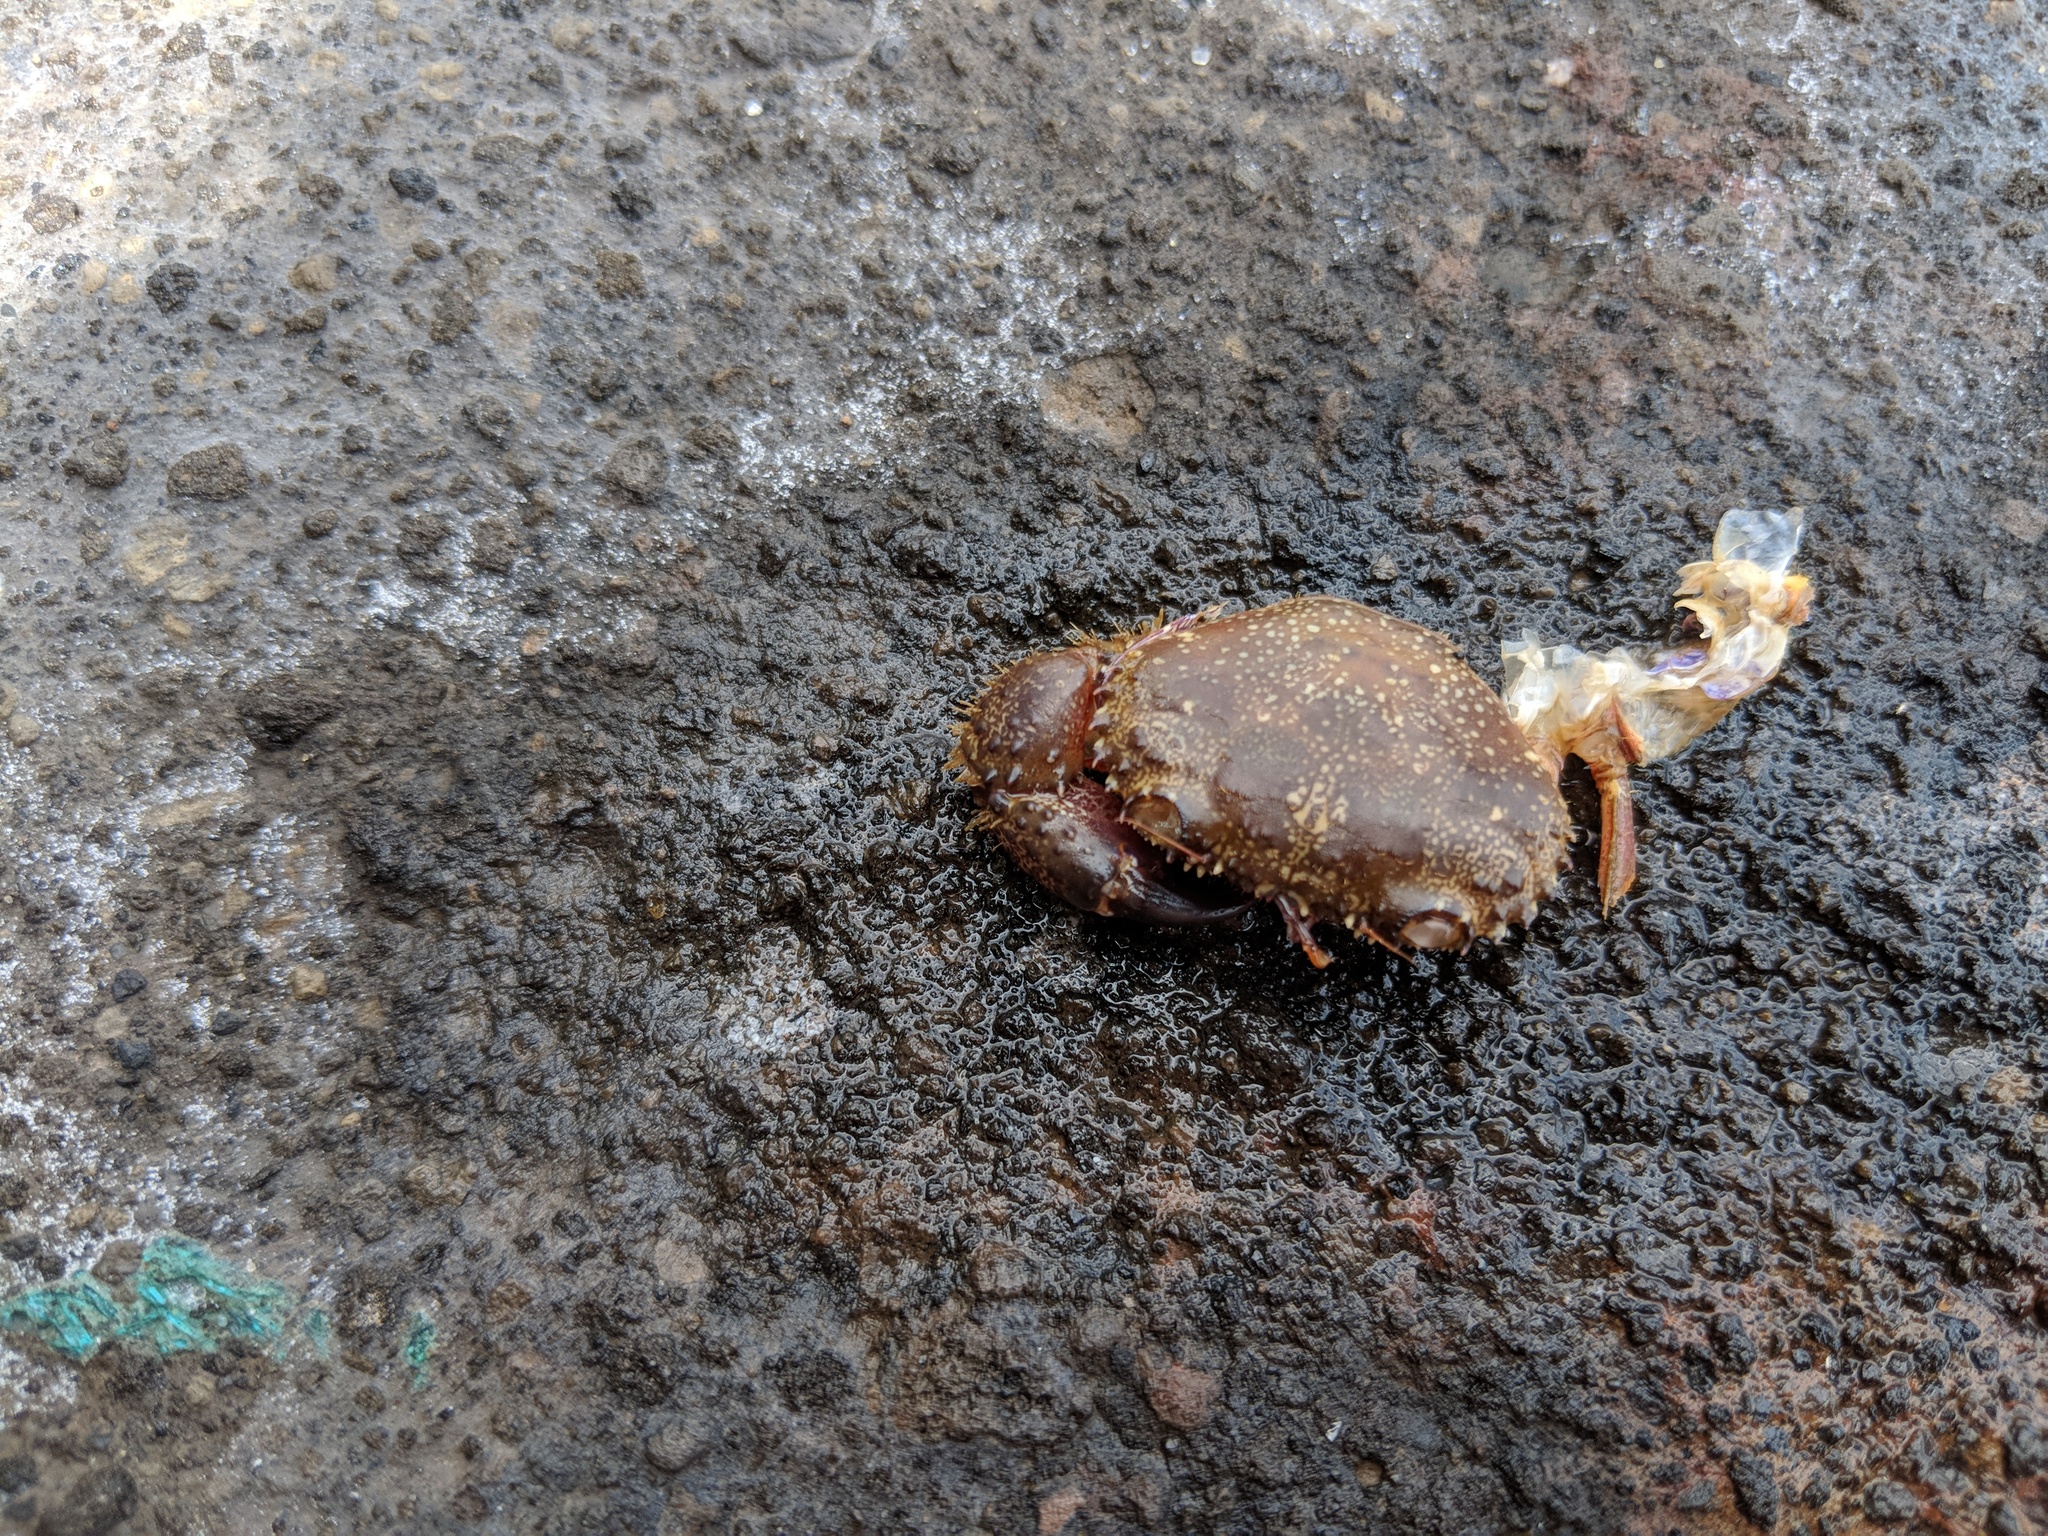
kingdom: Animalia
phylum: Arthropoda
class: Malacostraca
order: Decapoda
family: Eriphiidae
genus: Eriphia
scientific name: Eriphia verrucosa
